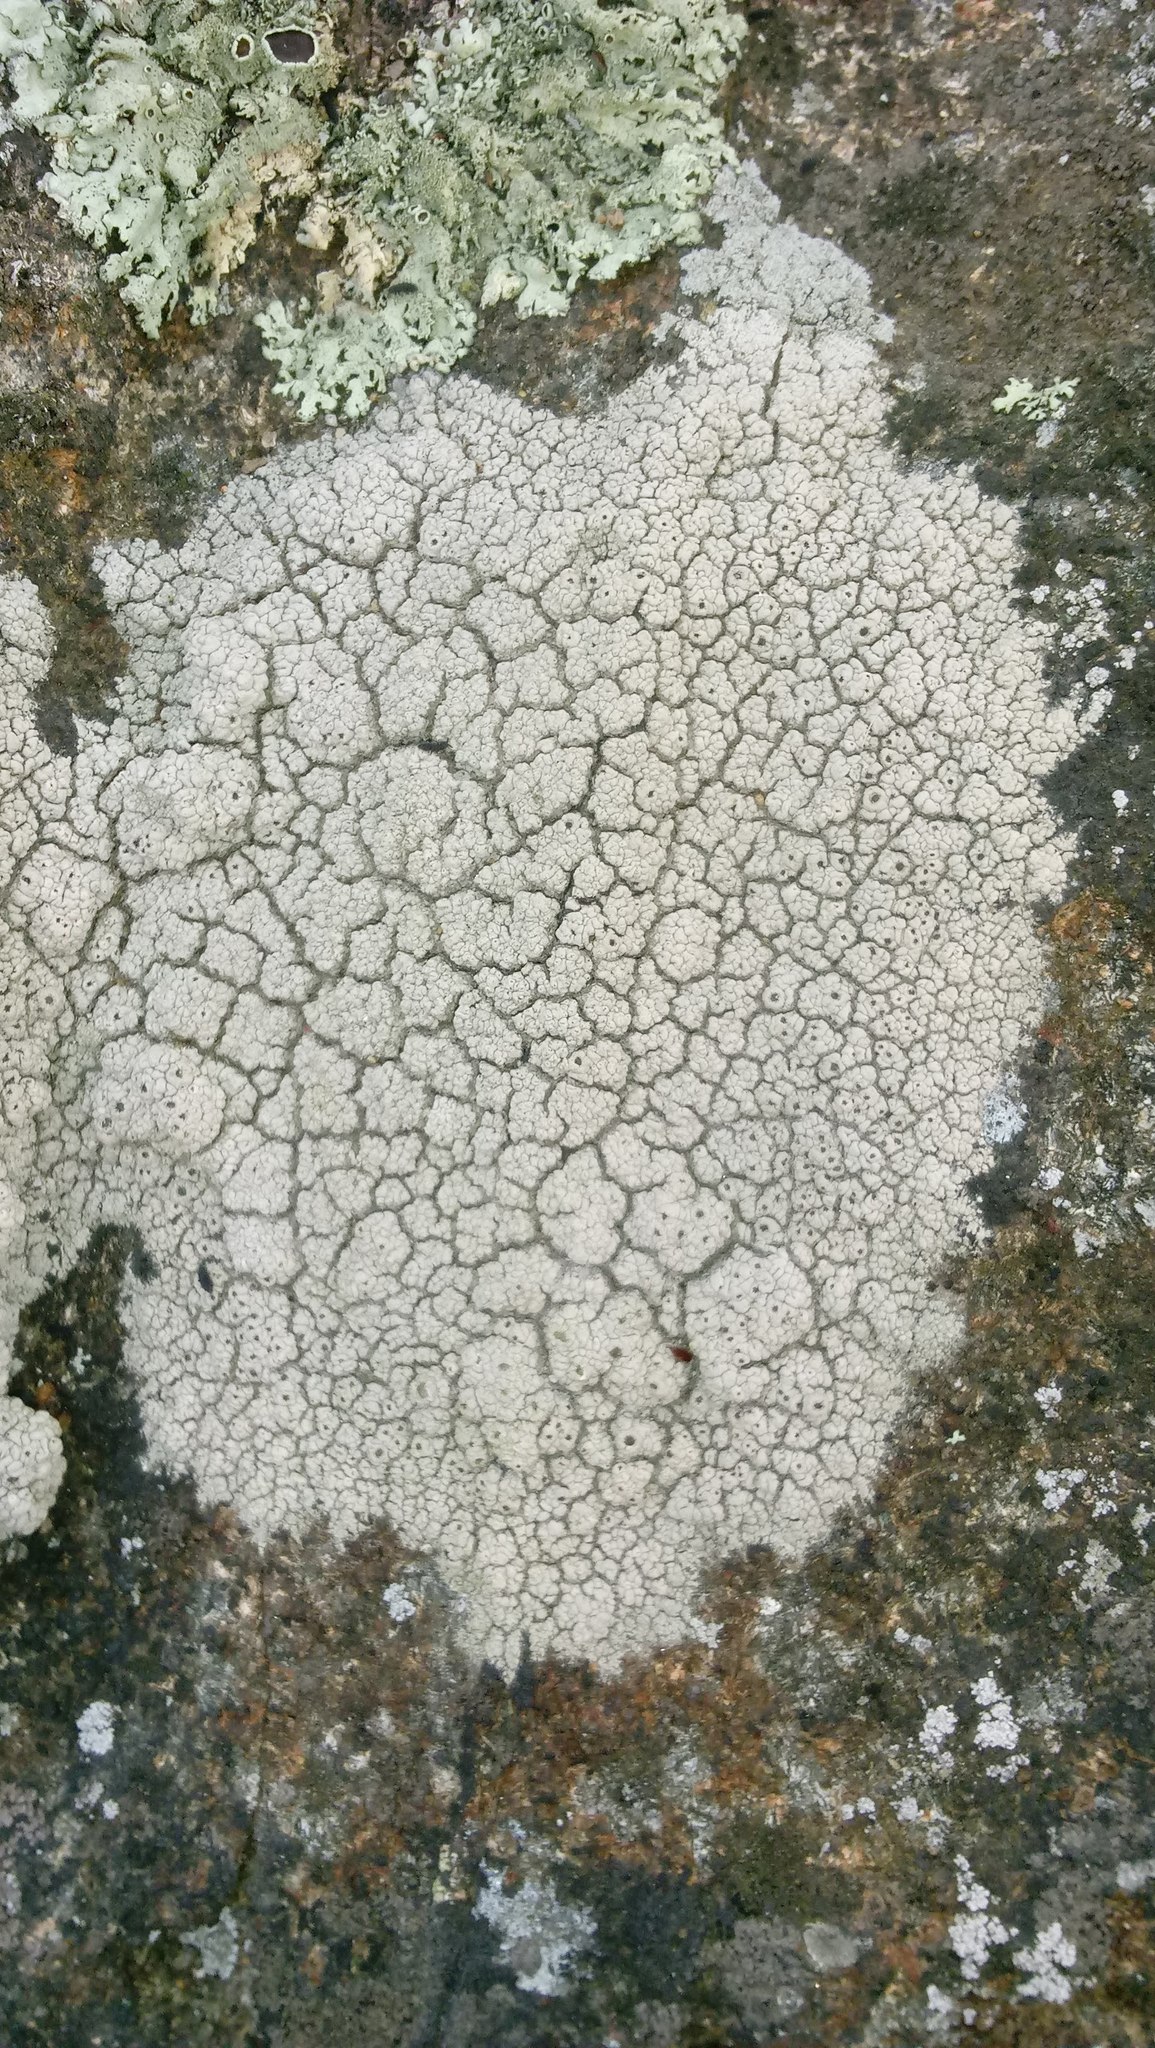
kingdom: Fungi
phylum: Ascomycota
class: Lecanoromycetes
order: Ostropales
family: Graphidaceae
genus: Diploschistes
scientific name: Diploschistes scruposus
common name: Crater lichen
